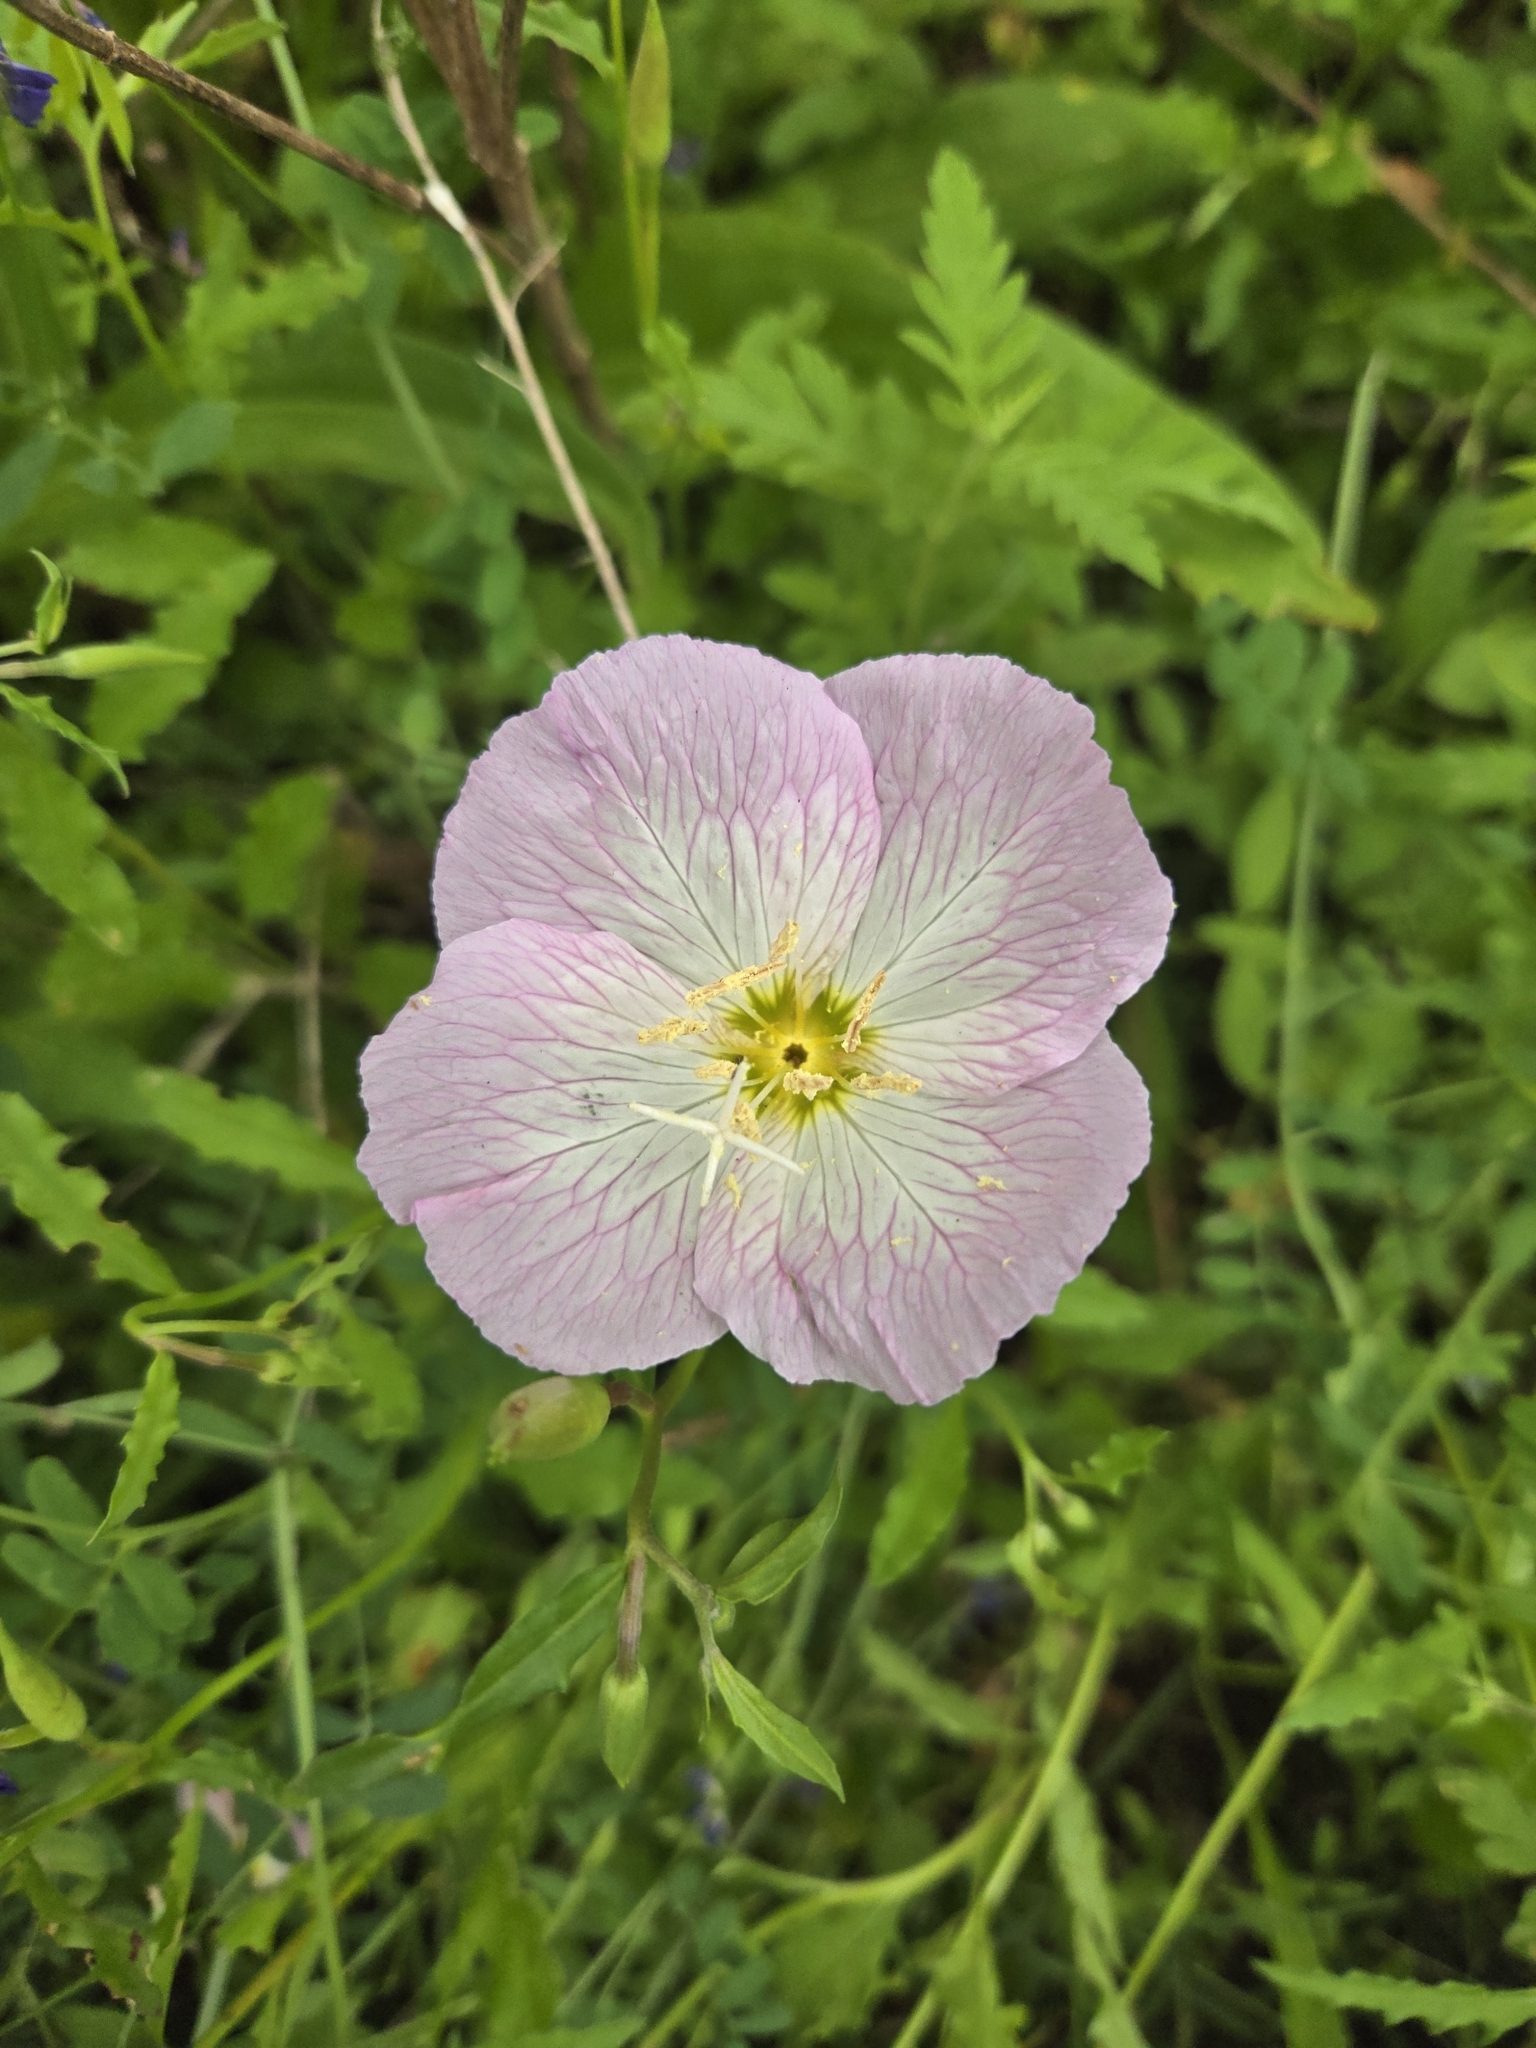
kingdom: Plantae
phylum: Tracheophyta
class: Magnoliopsida
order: Myrtales
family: Onagraceae
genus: Oenothera
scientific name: Oenothera speciosa
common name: White evening-primrose
